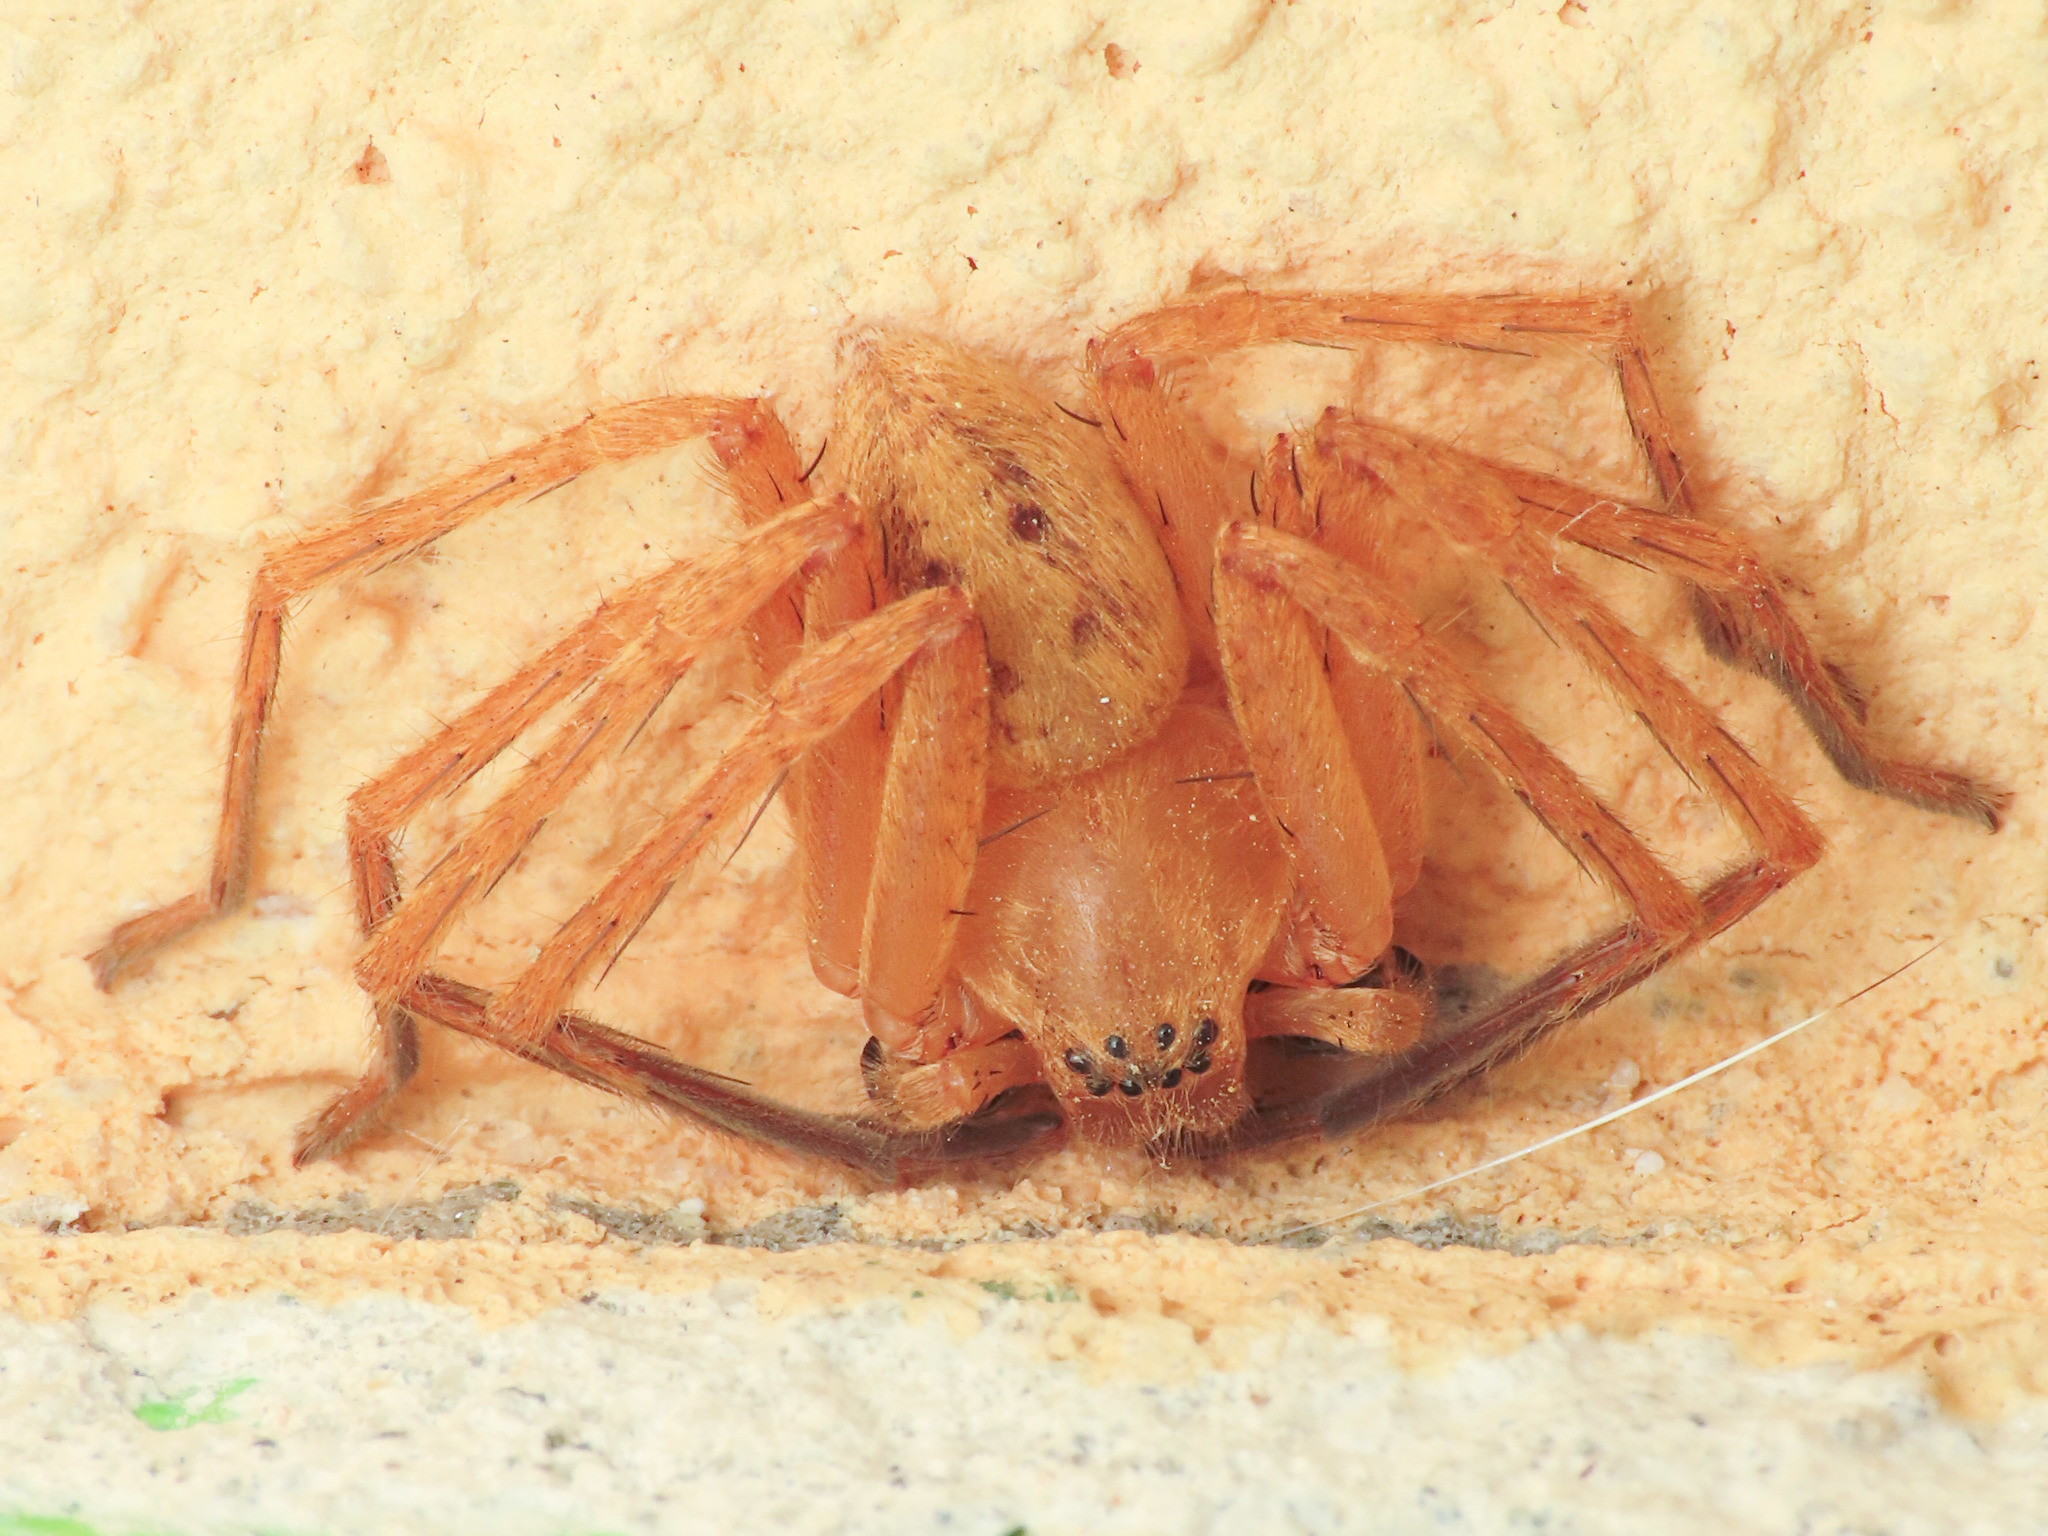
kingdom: Animalia
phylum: Arthropoda
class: Arachnida
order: Araneae
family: Sparassidae
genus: Olios
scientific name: Olios argelasius
